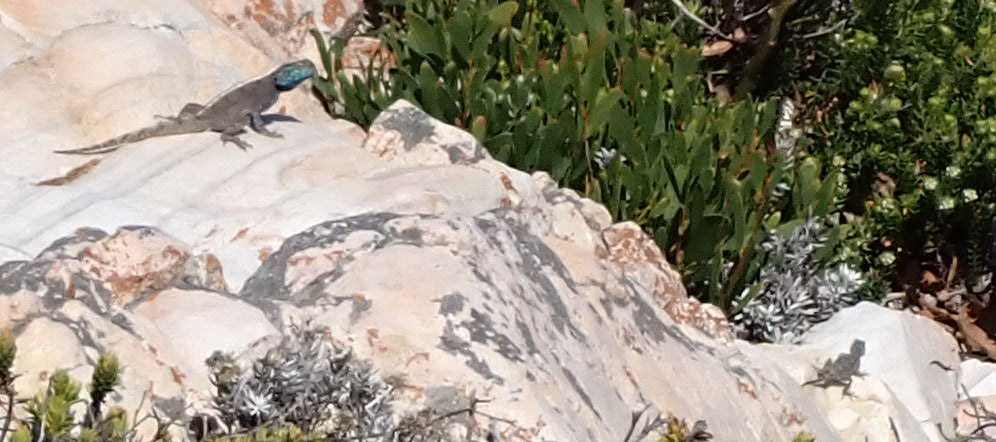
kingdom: Animalia
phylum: Chordata
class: Squamata
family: Agamidae
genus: Agama
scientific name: Agama atra
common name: Southern african rock agama
